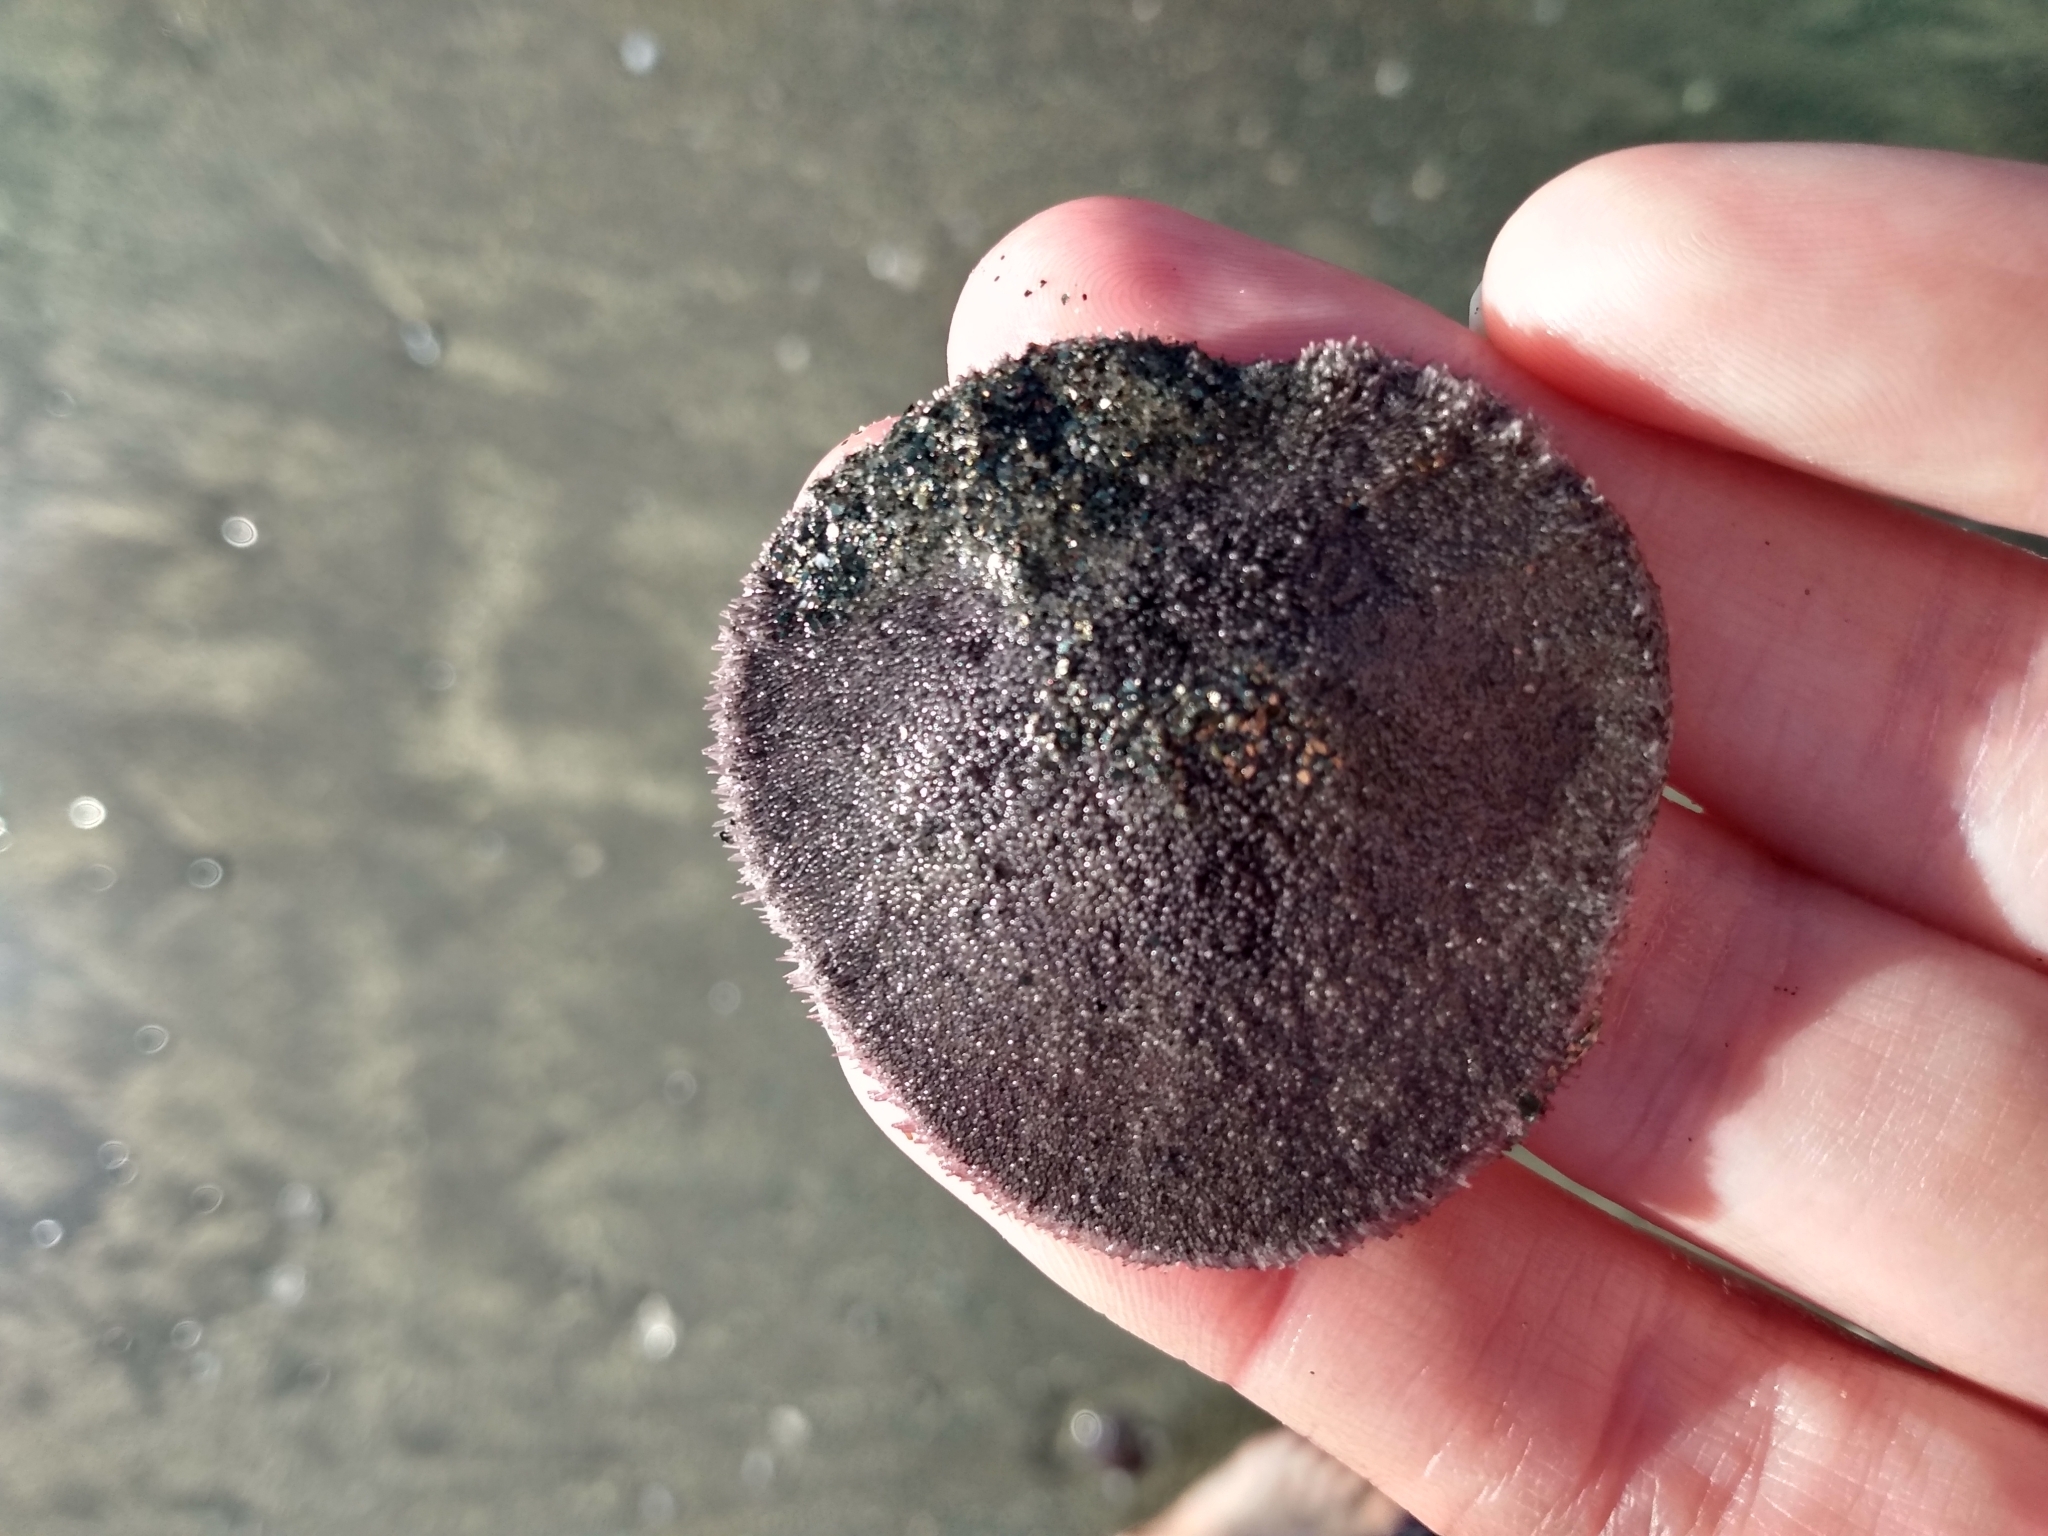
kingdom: Animalia
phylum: Echinodermata
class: Echinoidea
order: Echinolampadacea
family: Dendrasteridae
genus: Dendraster
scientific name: Dendraster excentricus
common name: Eccentric sand dollar sea urchin
